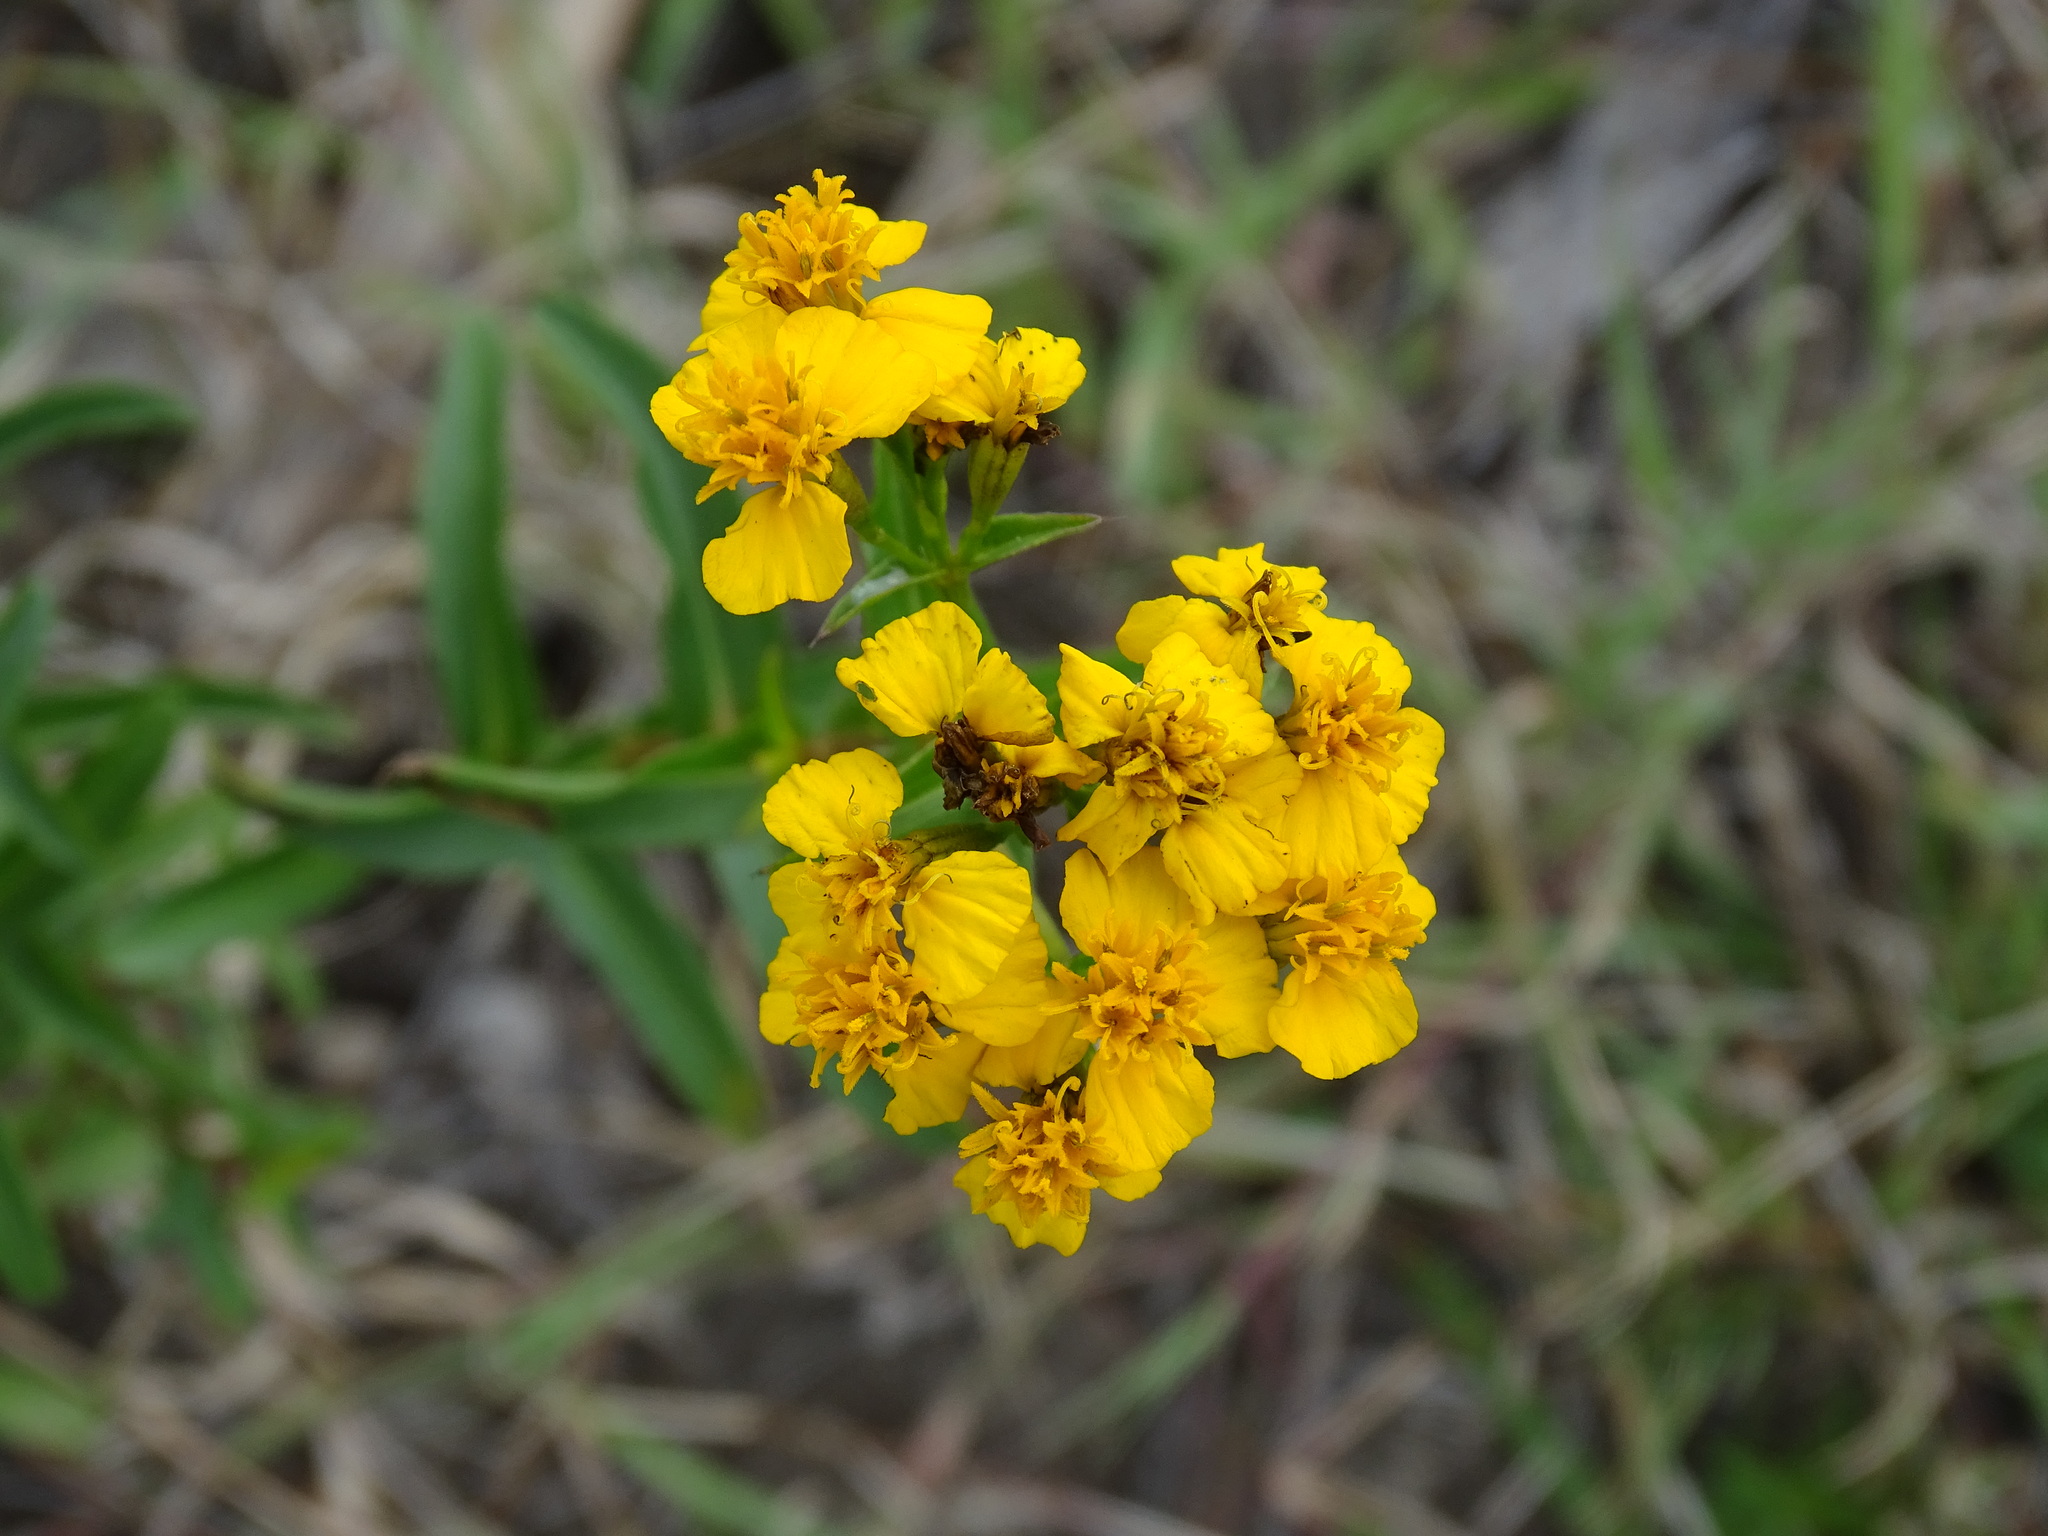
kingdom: Plantae
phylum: Tracheophyta
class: Magnoliopsida
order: Asterales
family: Asteraceae
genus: Tagetes
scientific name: Tagetes lucida
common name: Sweetscented marigold
